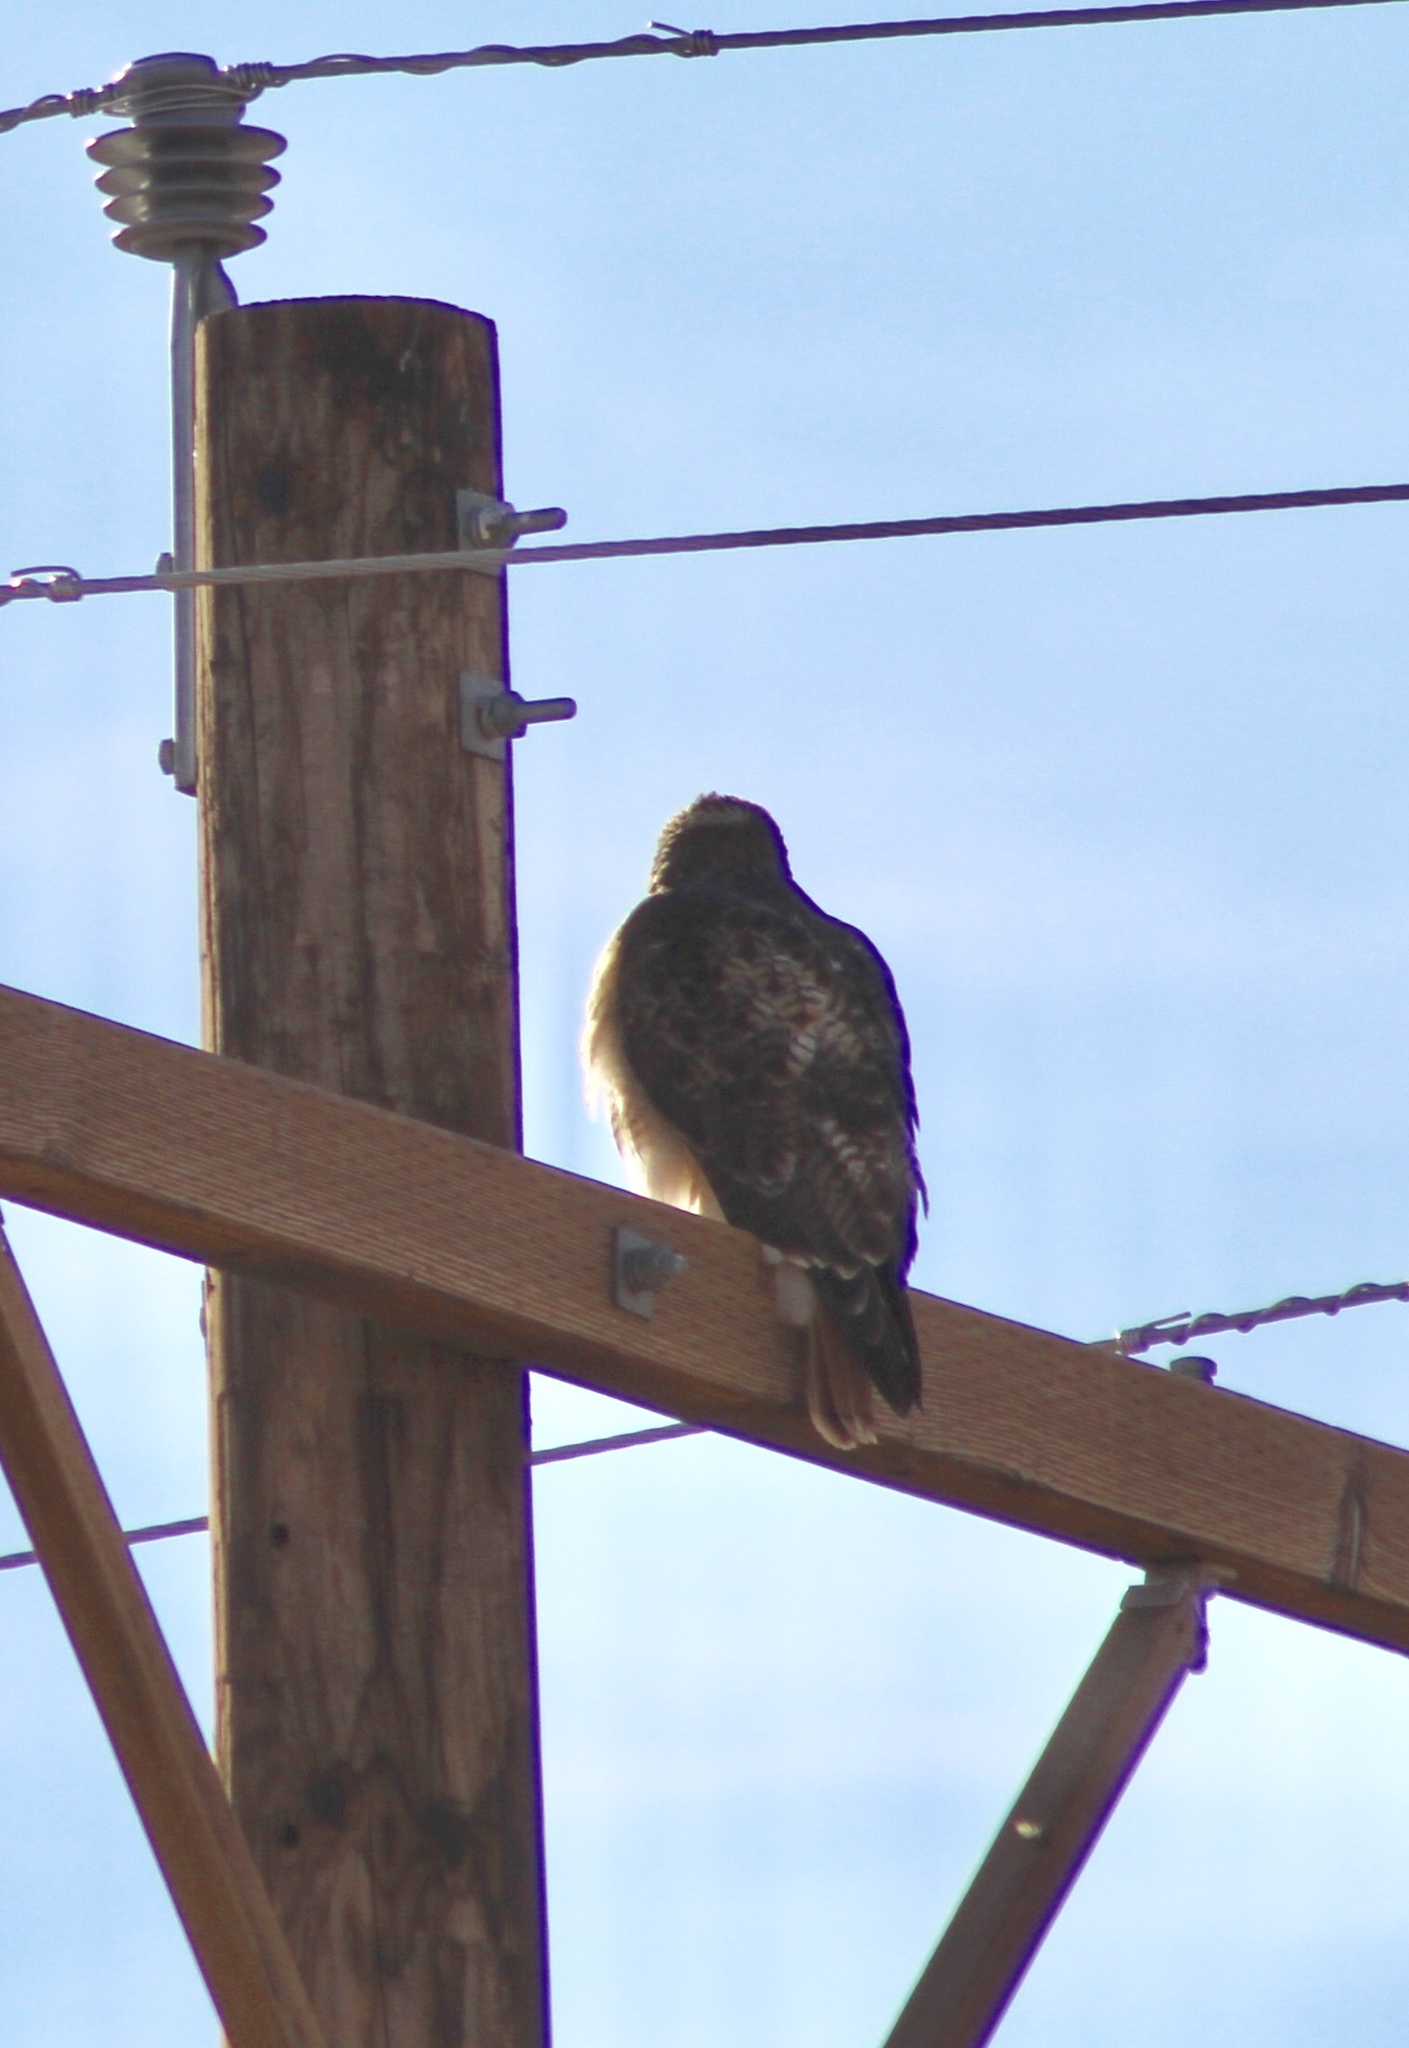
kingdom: Animalia
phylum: Chordata
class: Aves
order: Accipitriformes
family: Accipitridae
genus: Buteo
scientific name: Buteo jamaicensis
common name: Red-tailed hawk
